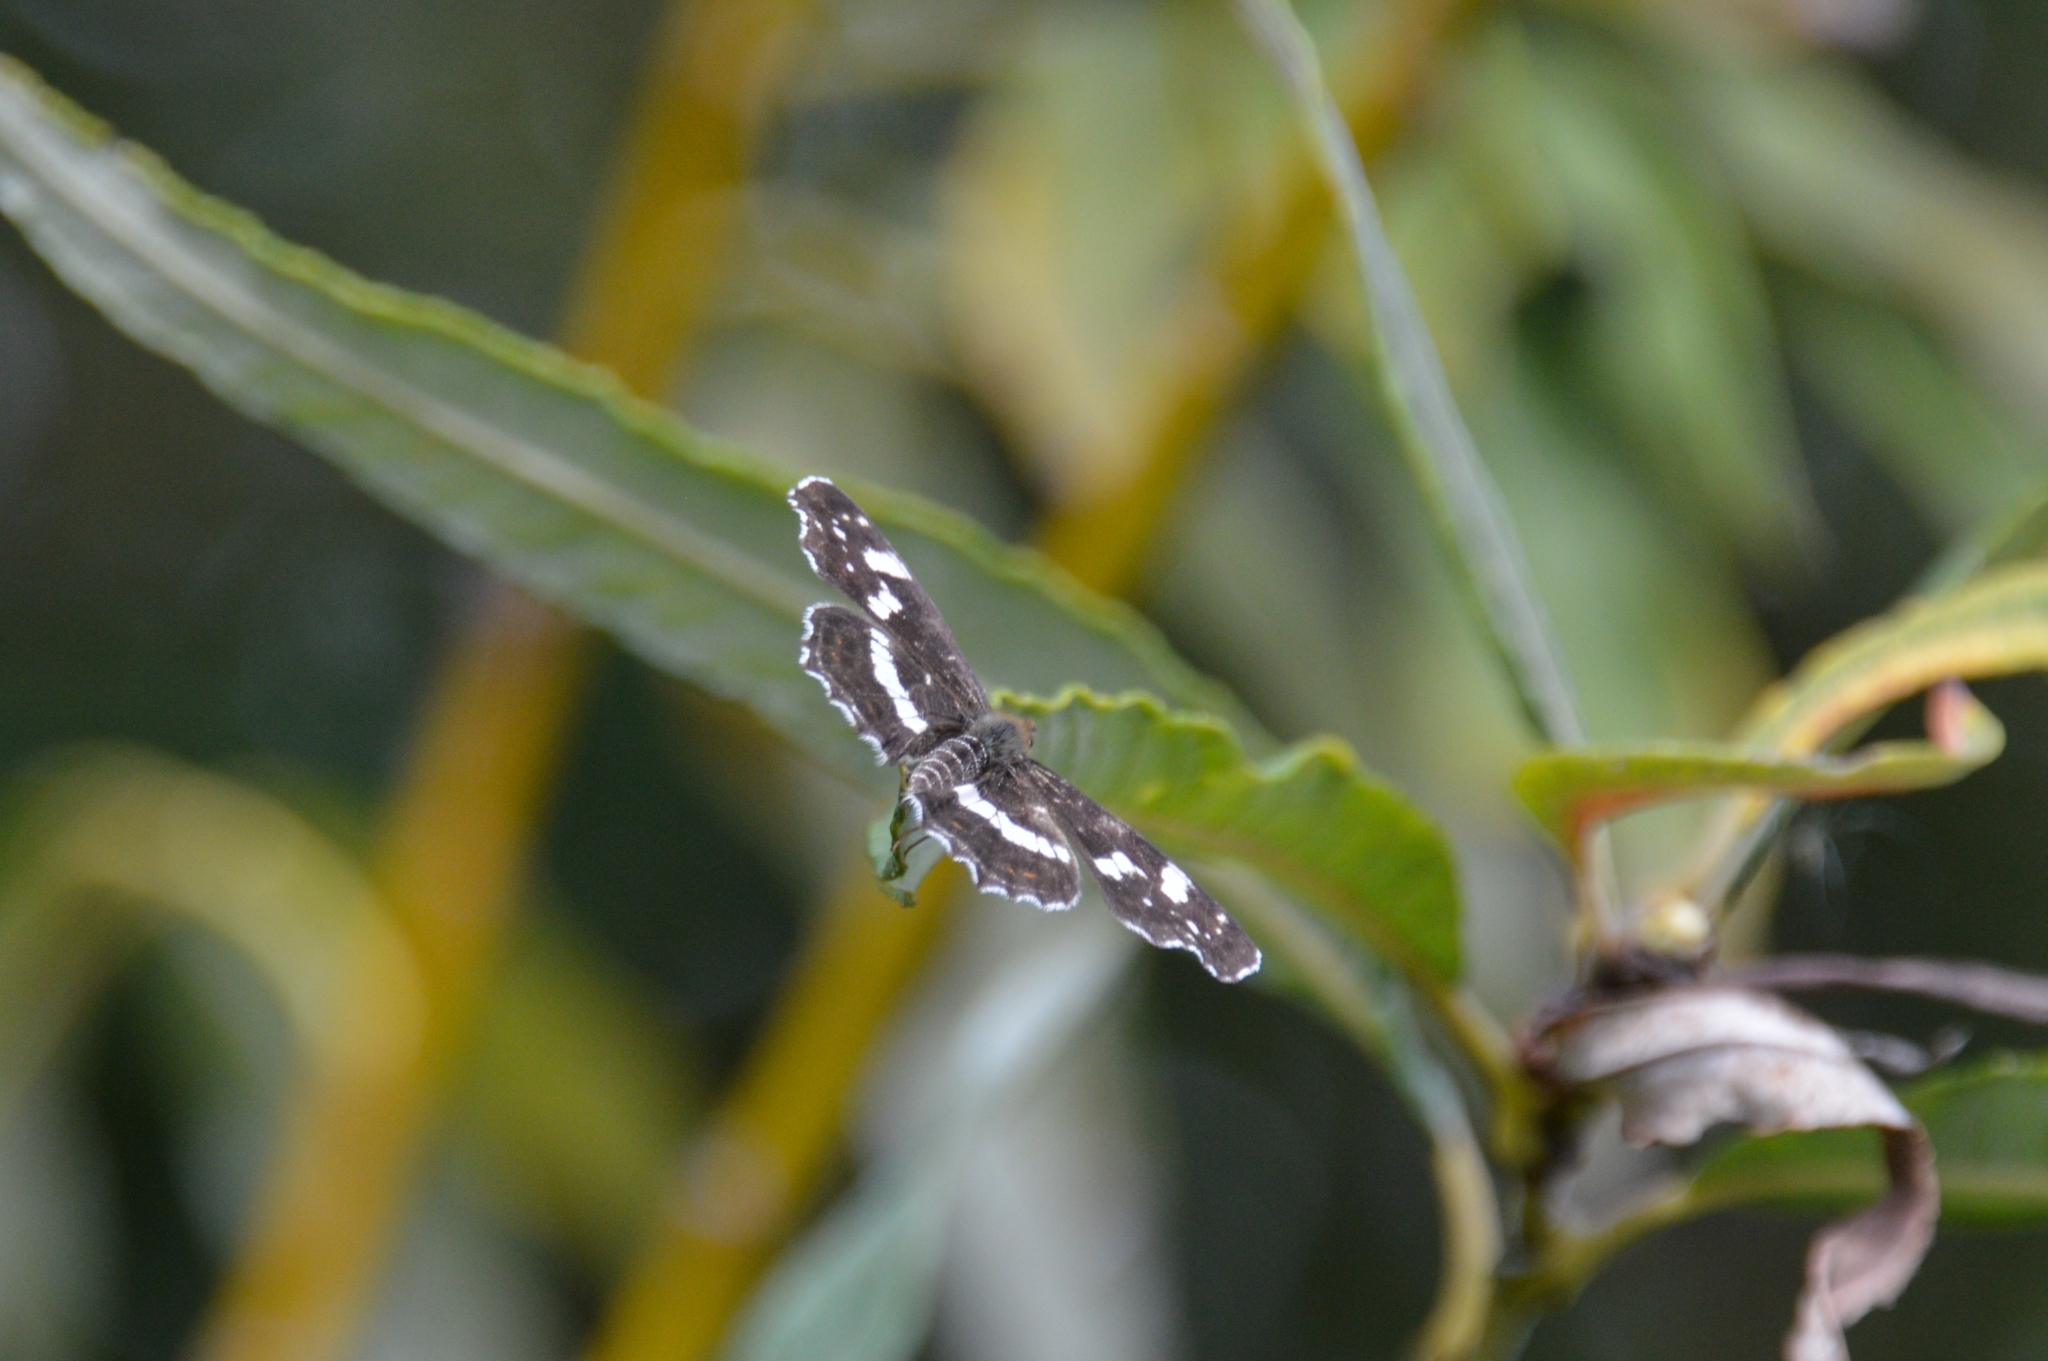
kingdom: Animalia
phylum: Arthropoda
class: Insecta
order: Lepidoptera
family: Nymphalidae
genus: Araschnia
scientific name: Araschnia levana
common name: Map butterfly
